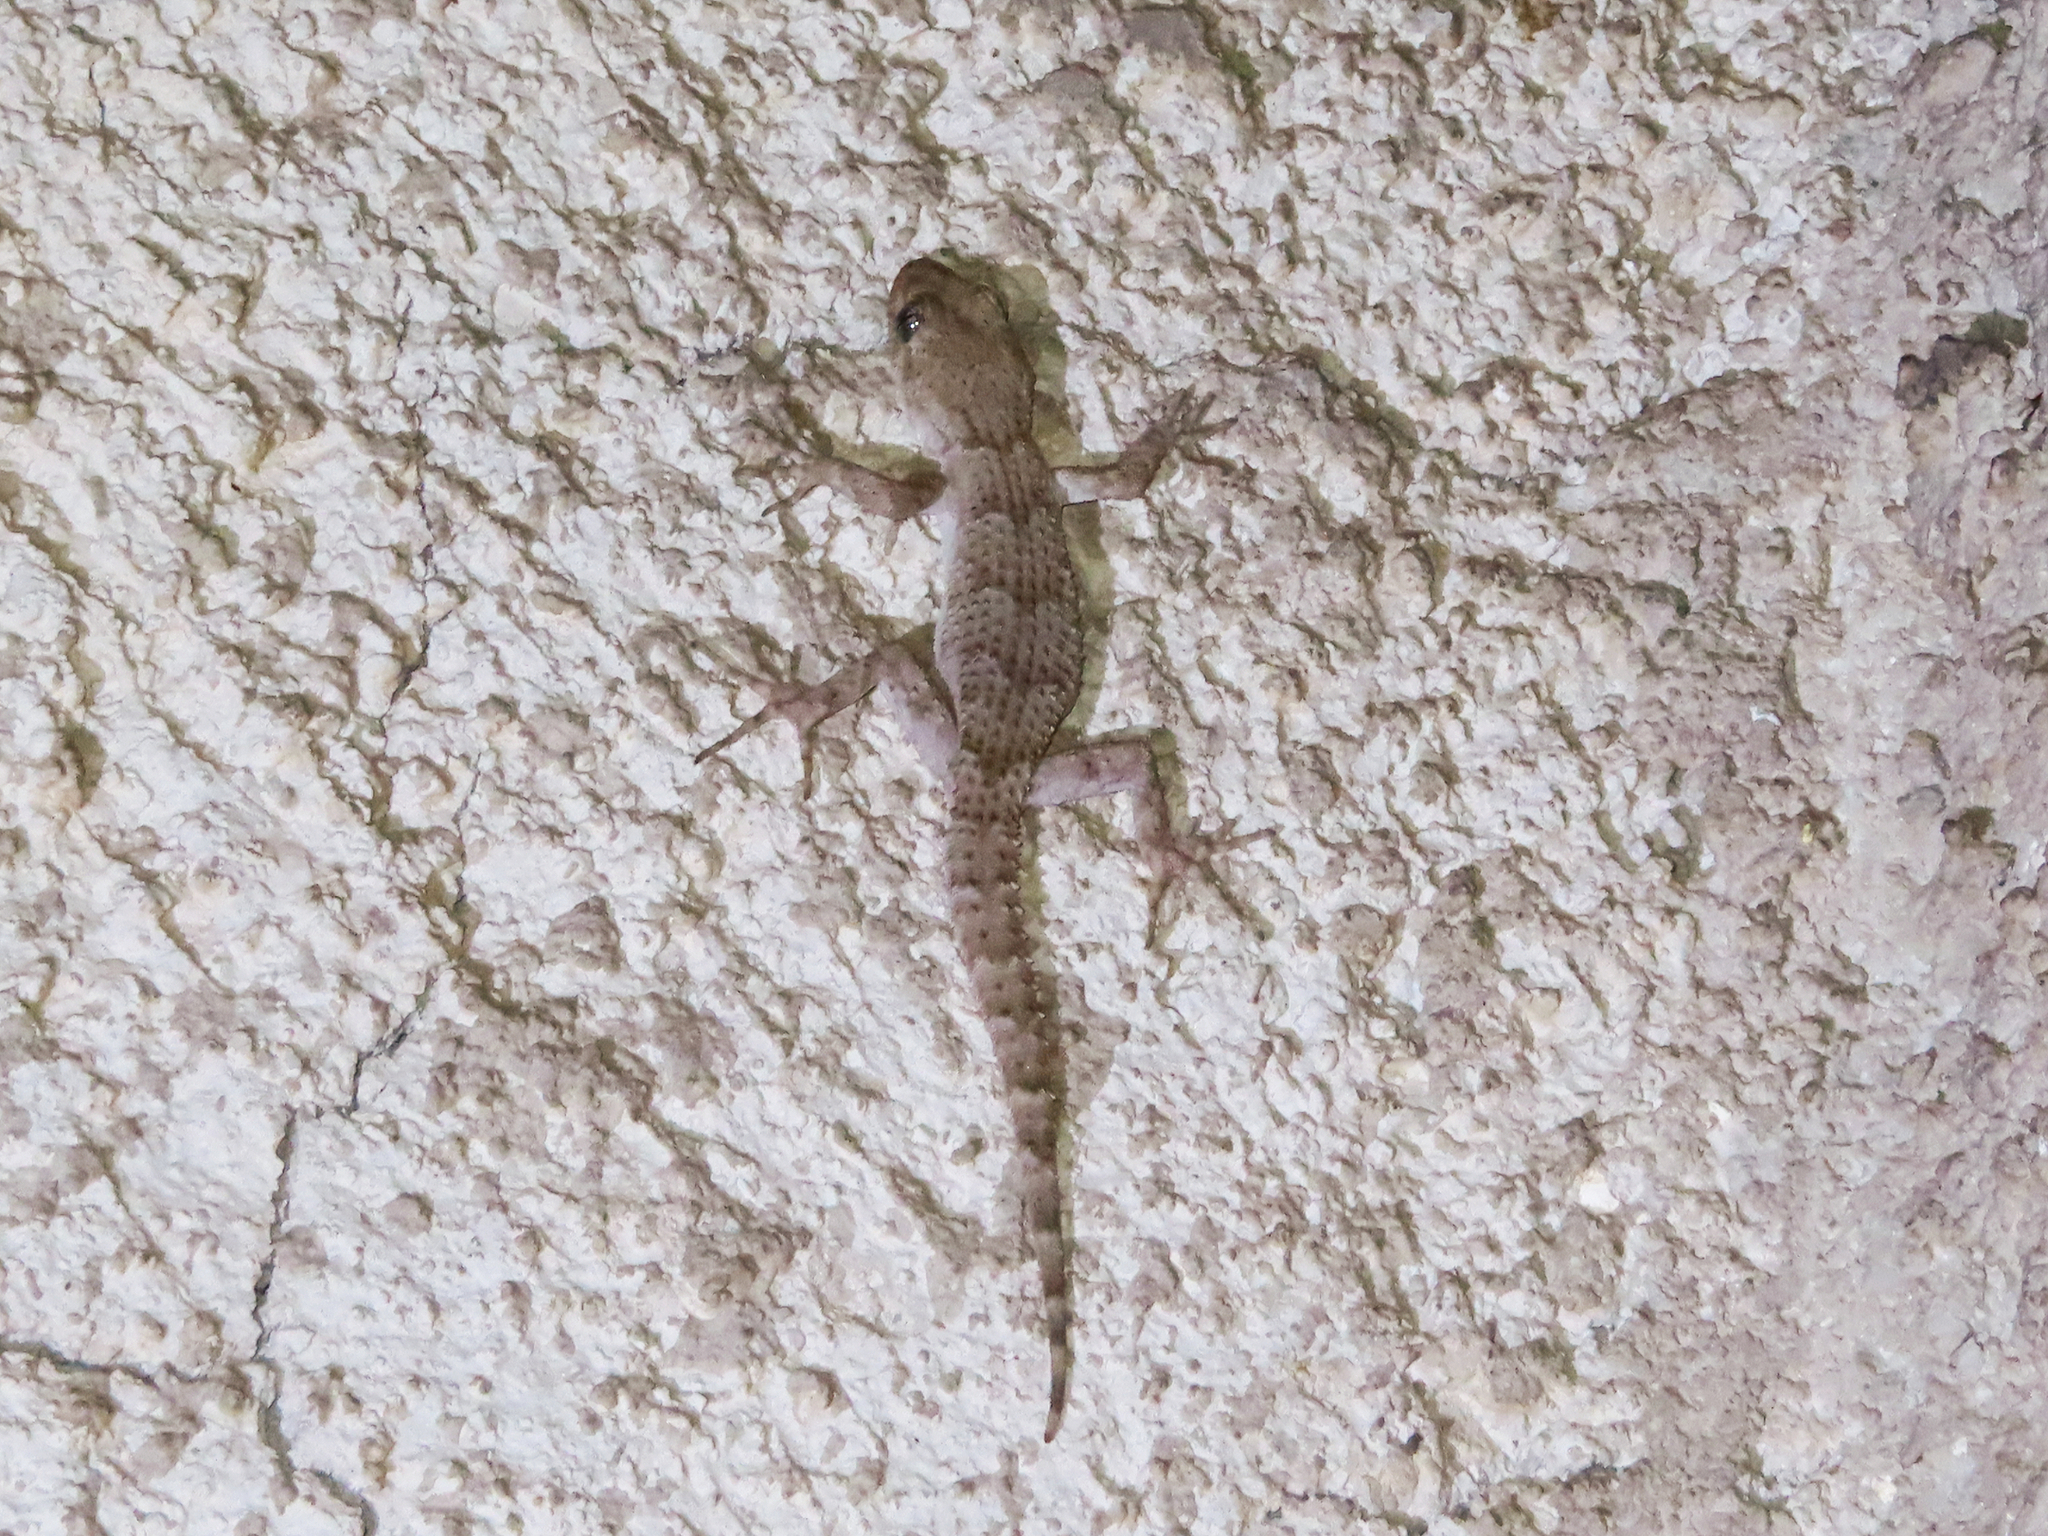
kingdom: Animalia
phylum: Chordata
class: Squamata
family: Gekkonidae
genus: Mediodactylus
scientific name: Mediodactylus kotschyi
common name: Kotschy's gecko
